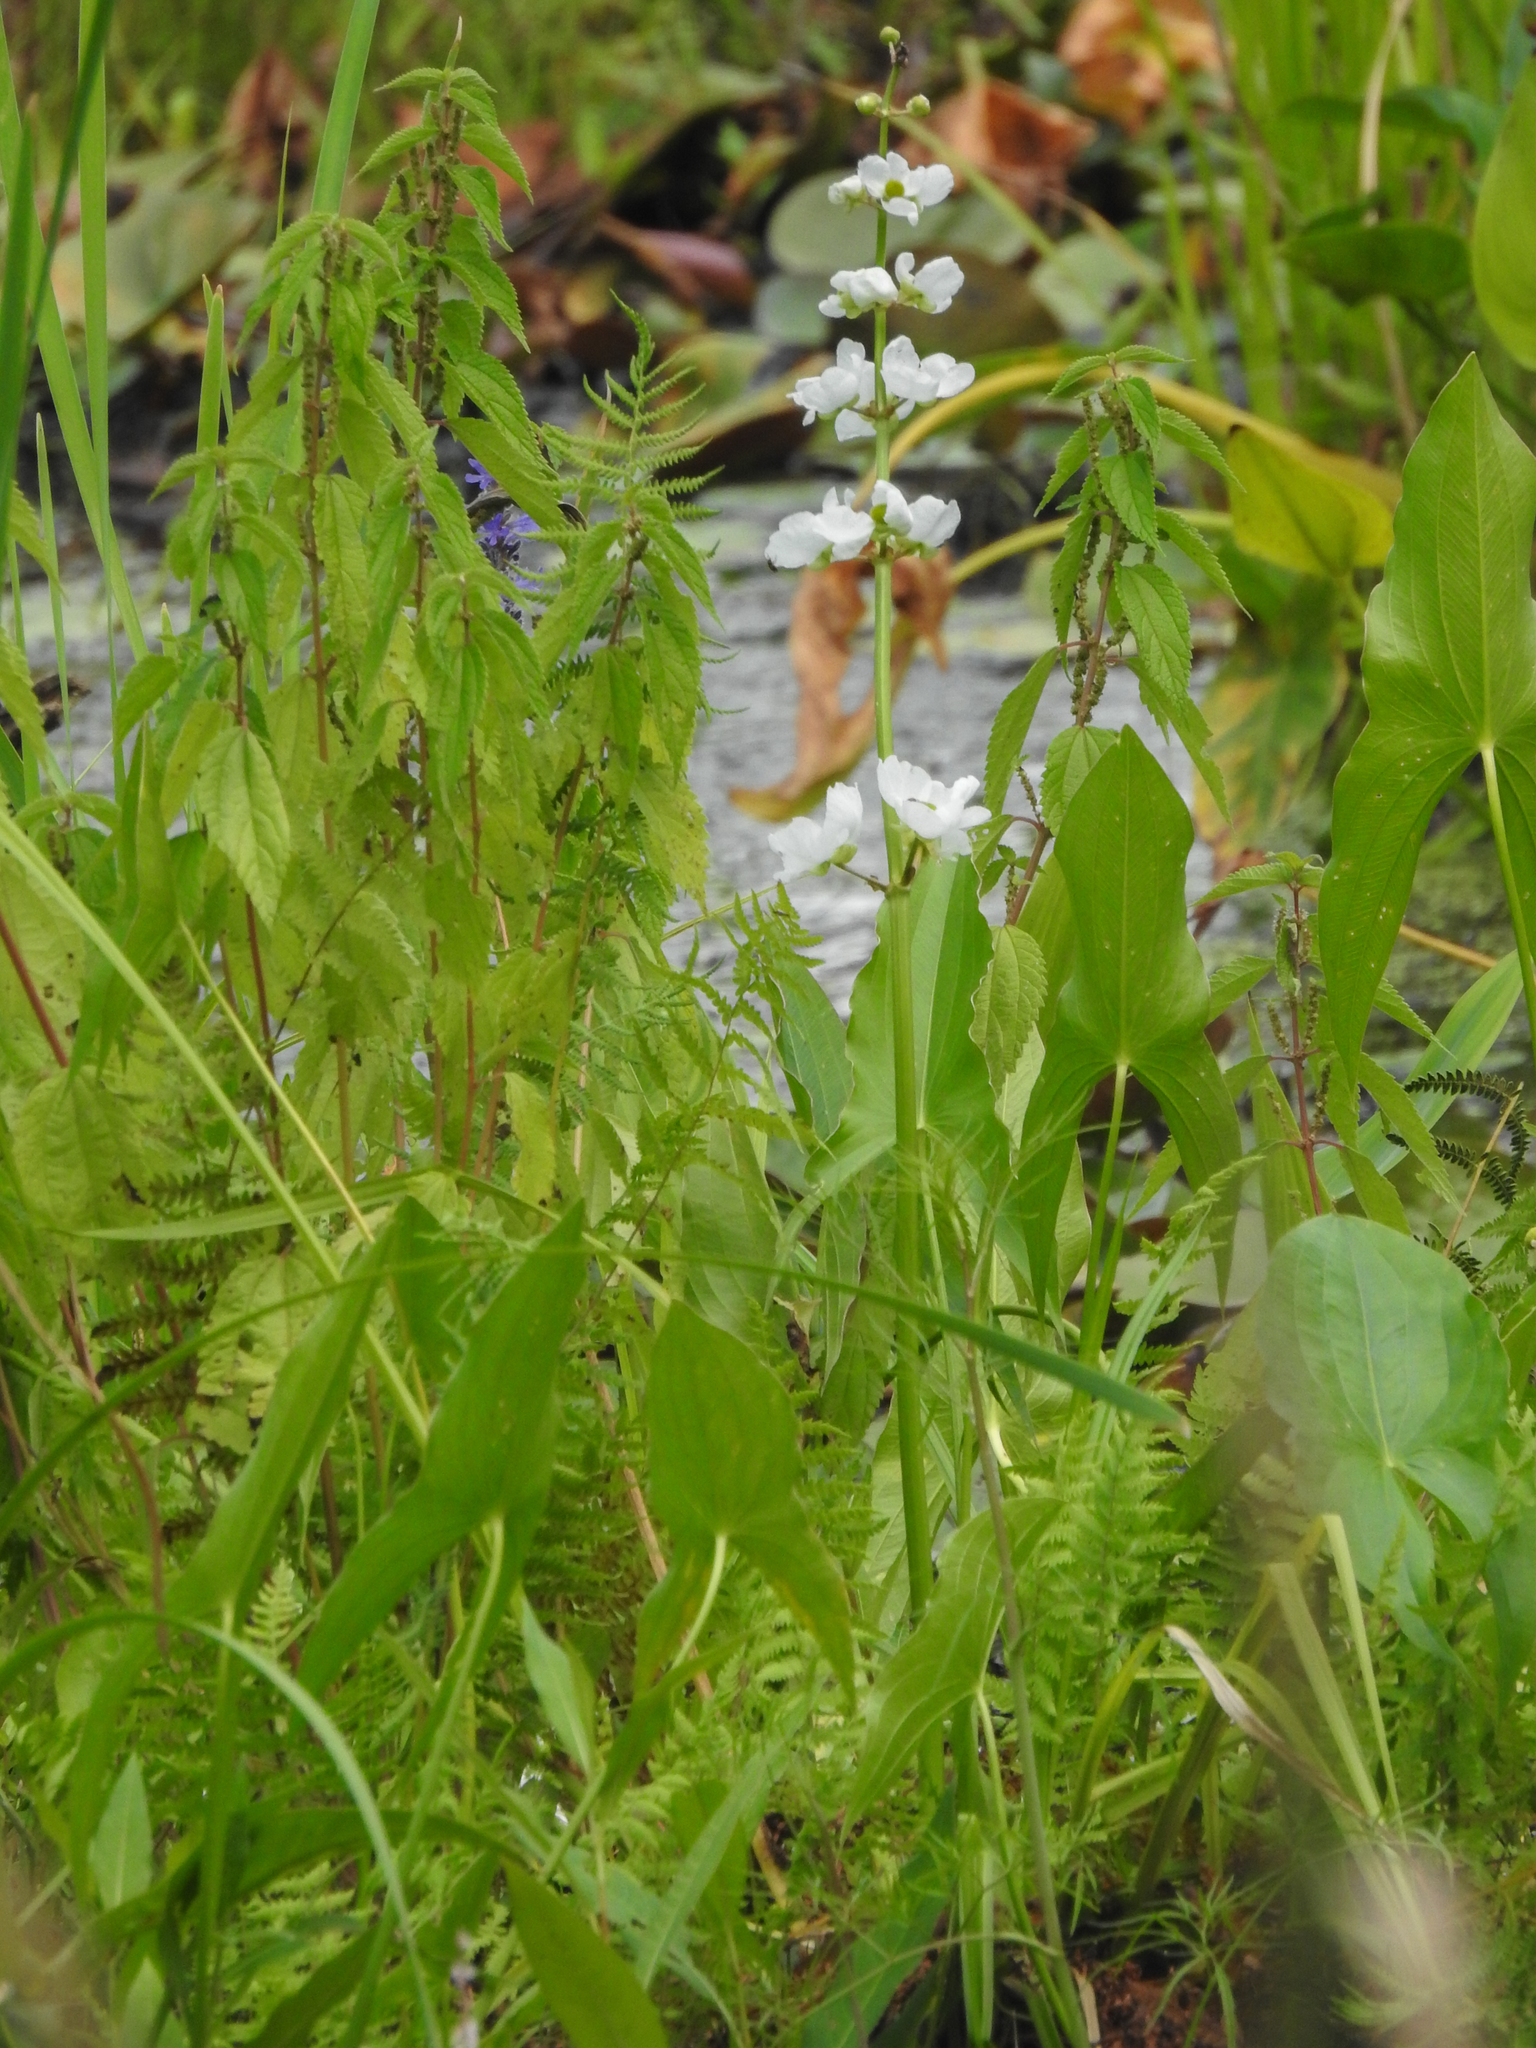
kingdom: Plantae
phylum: Tracheophyta
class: Liliopsida
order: Alismatales
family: Alismataceae
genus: Sagittaria
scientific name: Sagittaria latifolia
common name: Duck-potato
